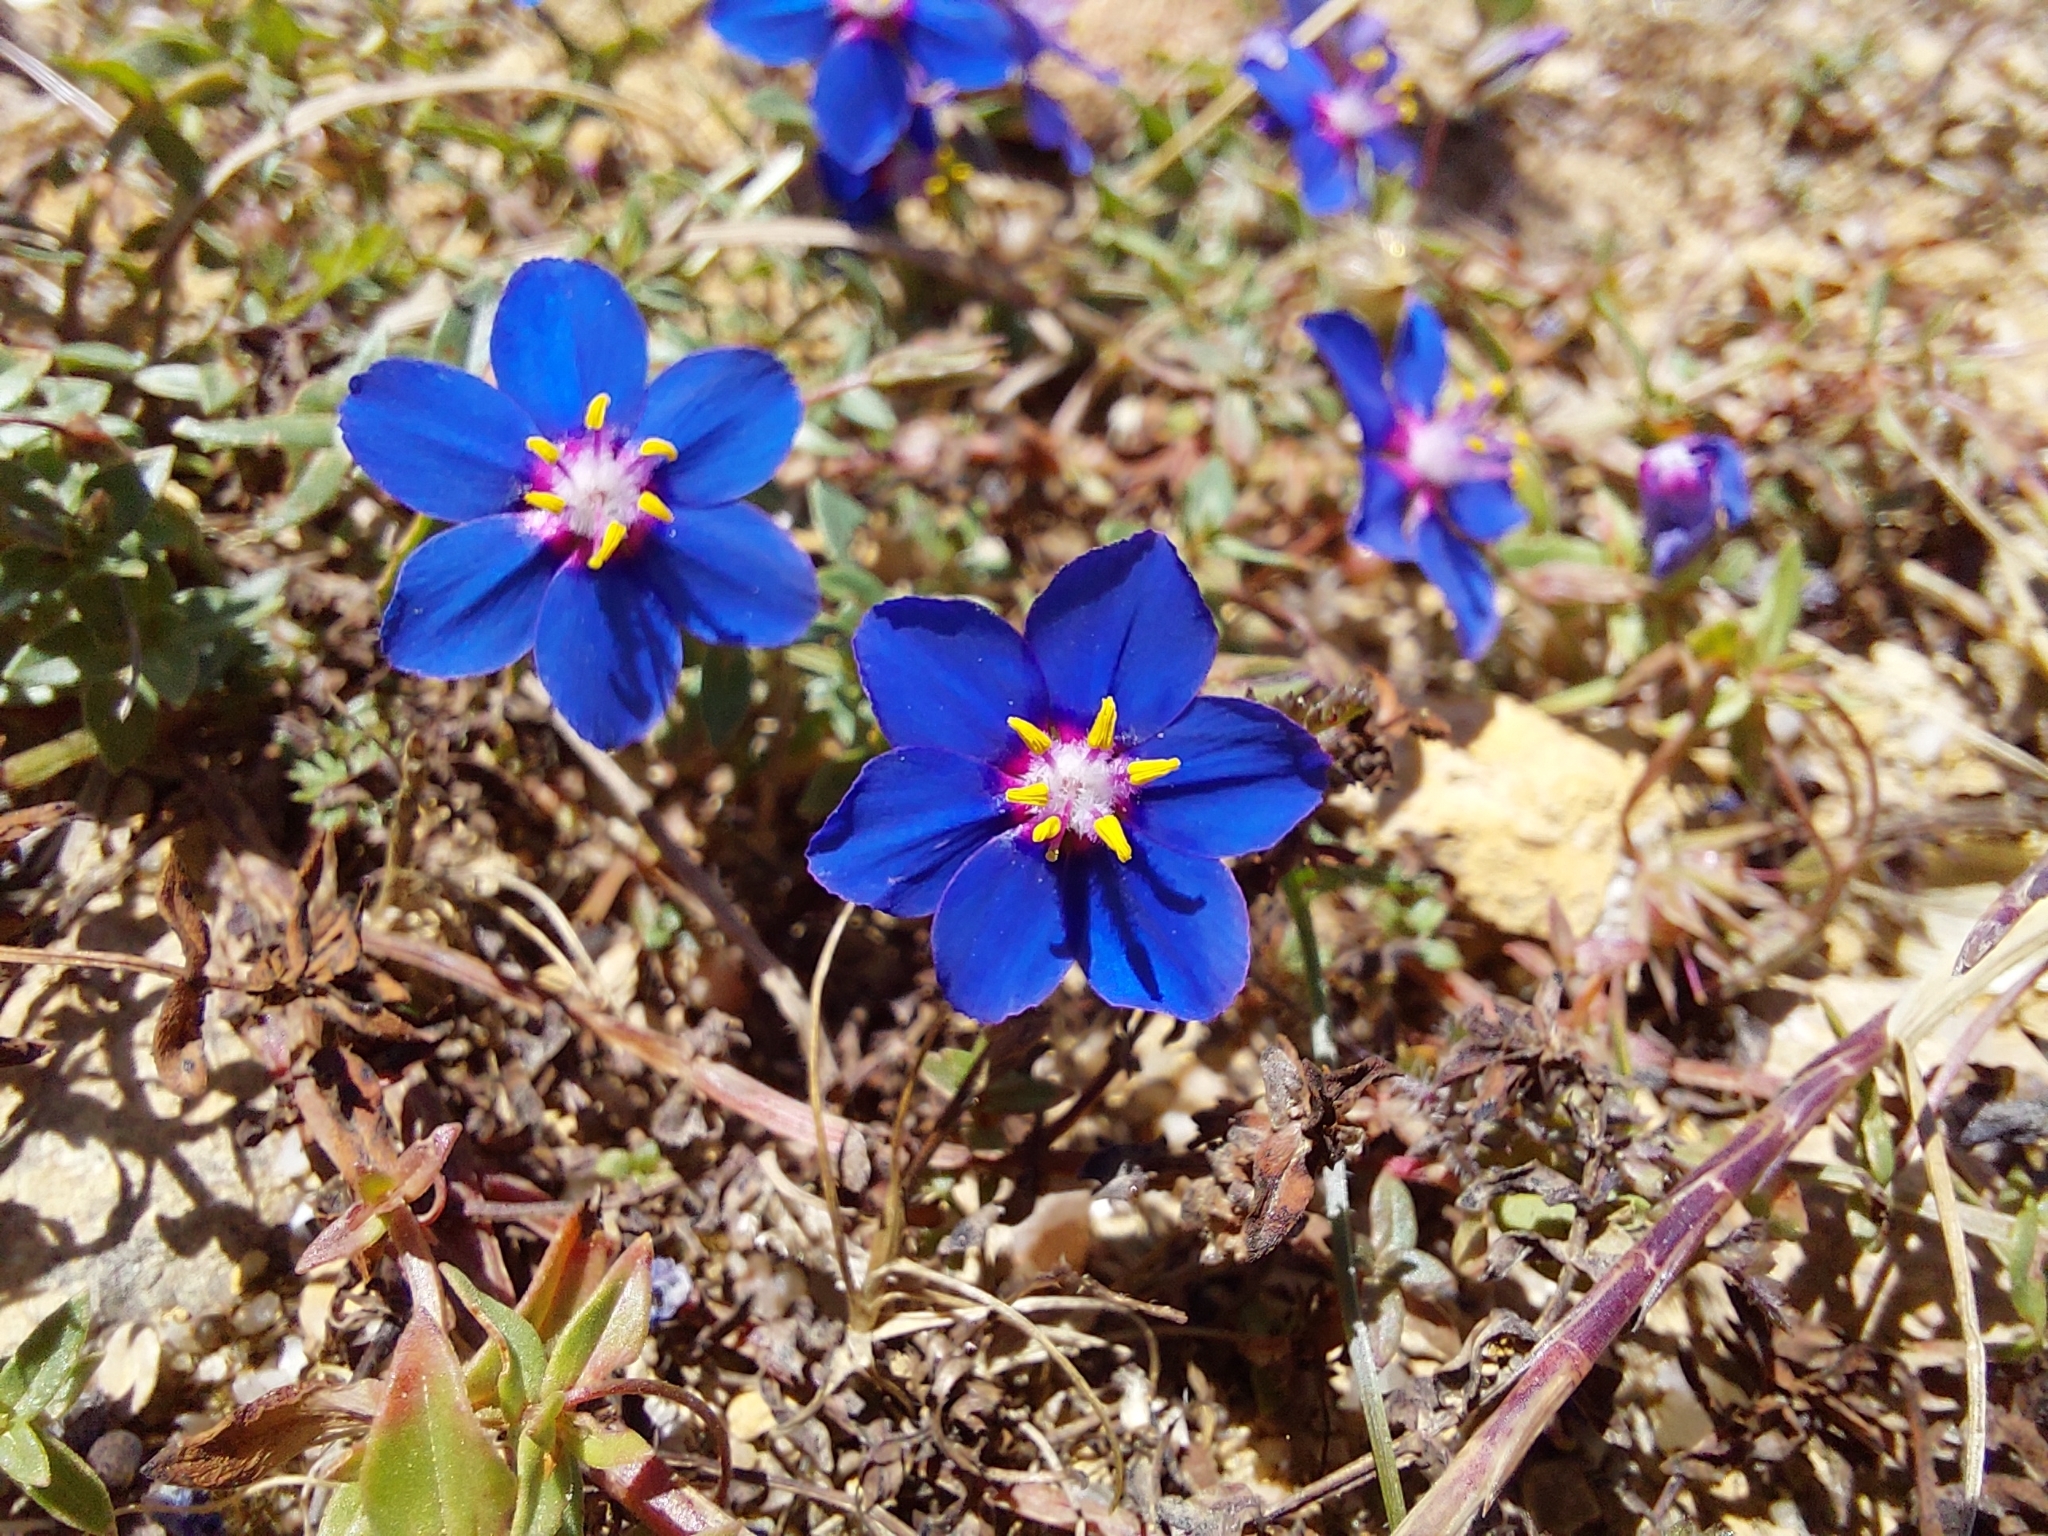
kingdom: Plantae
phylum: Tracheophyta
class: Magnoliopsida
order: Ericales
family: Primulaceae
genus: Lysimachia
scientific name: Lysimachia monelli
